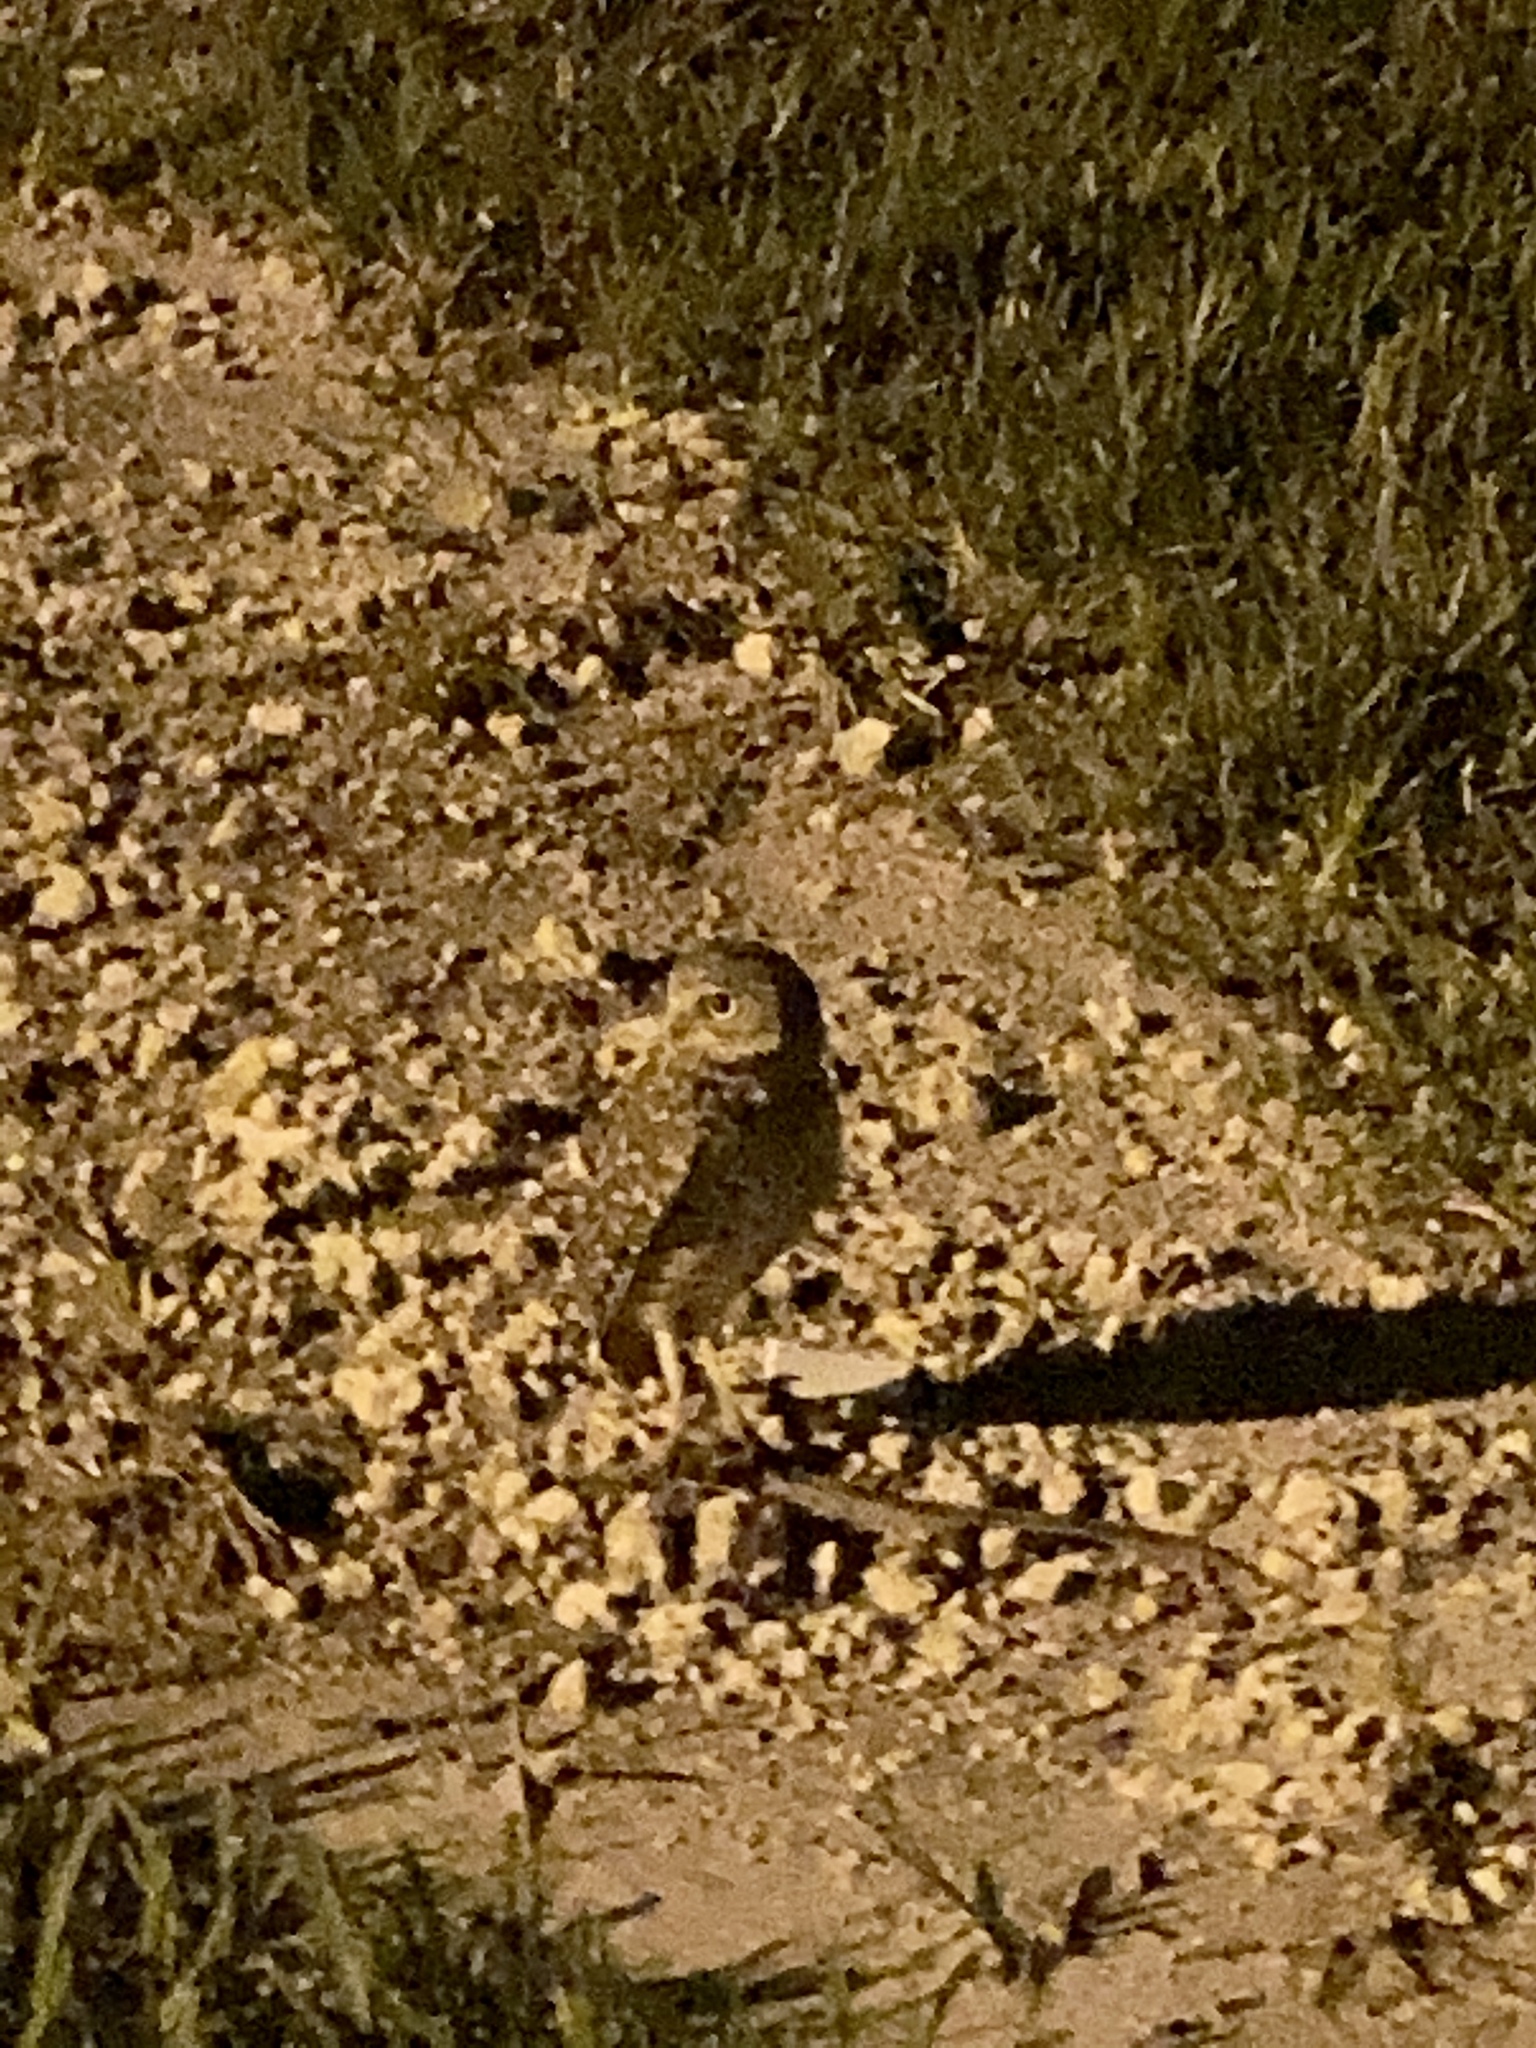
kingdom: Animalia
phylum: Chordata
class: Aves
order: Strigiformes
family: Strigidae
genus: Athene
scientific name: Athene cunicularia
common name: Burrowing owl
